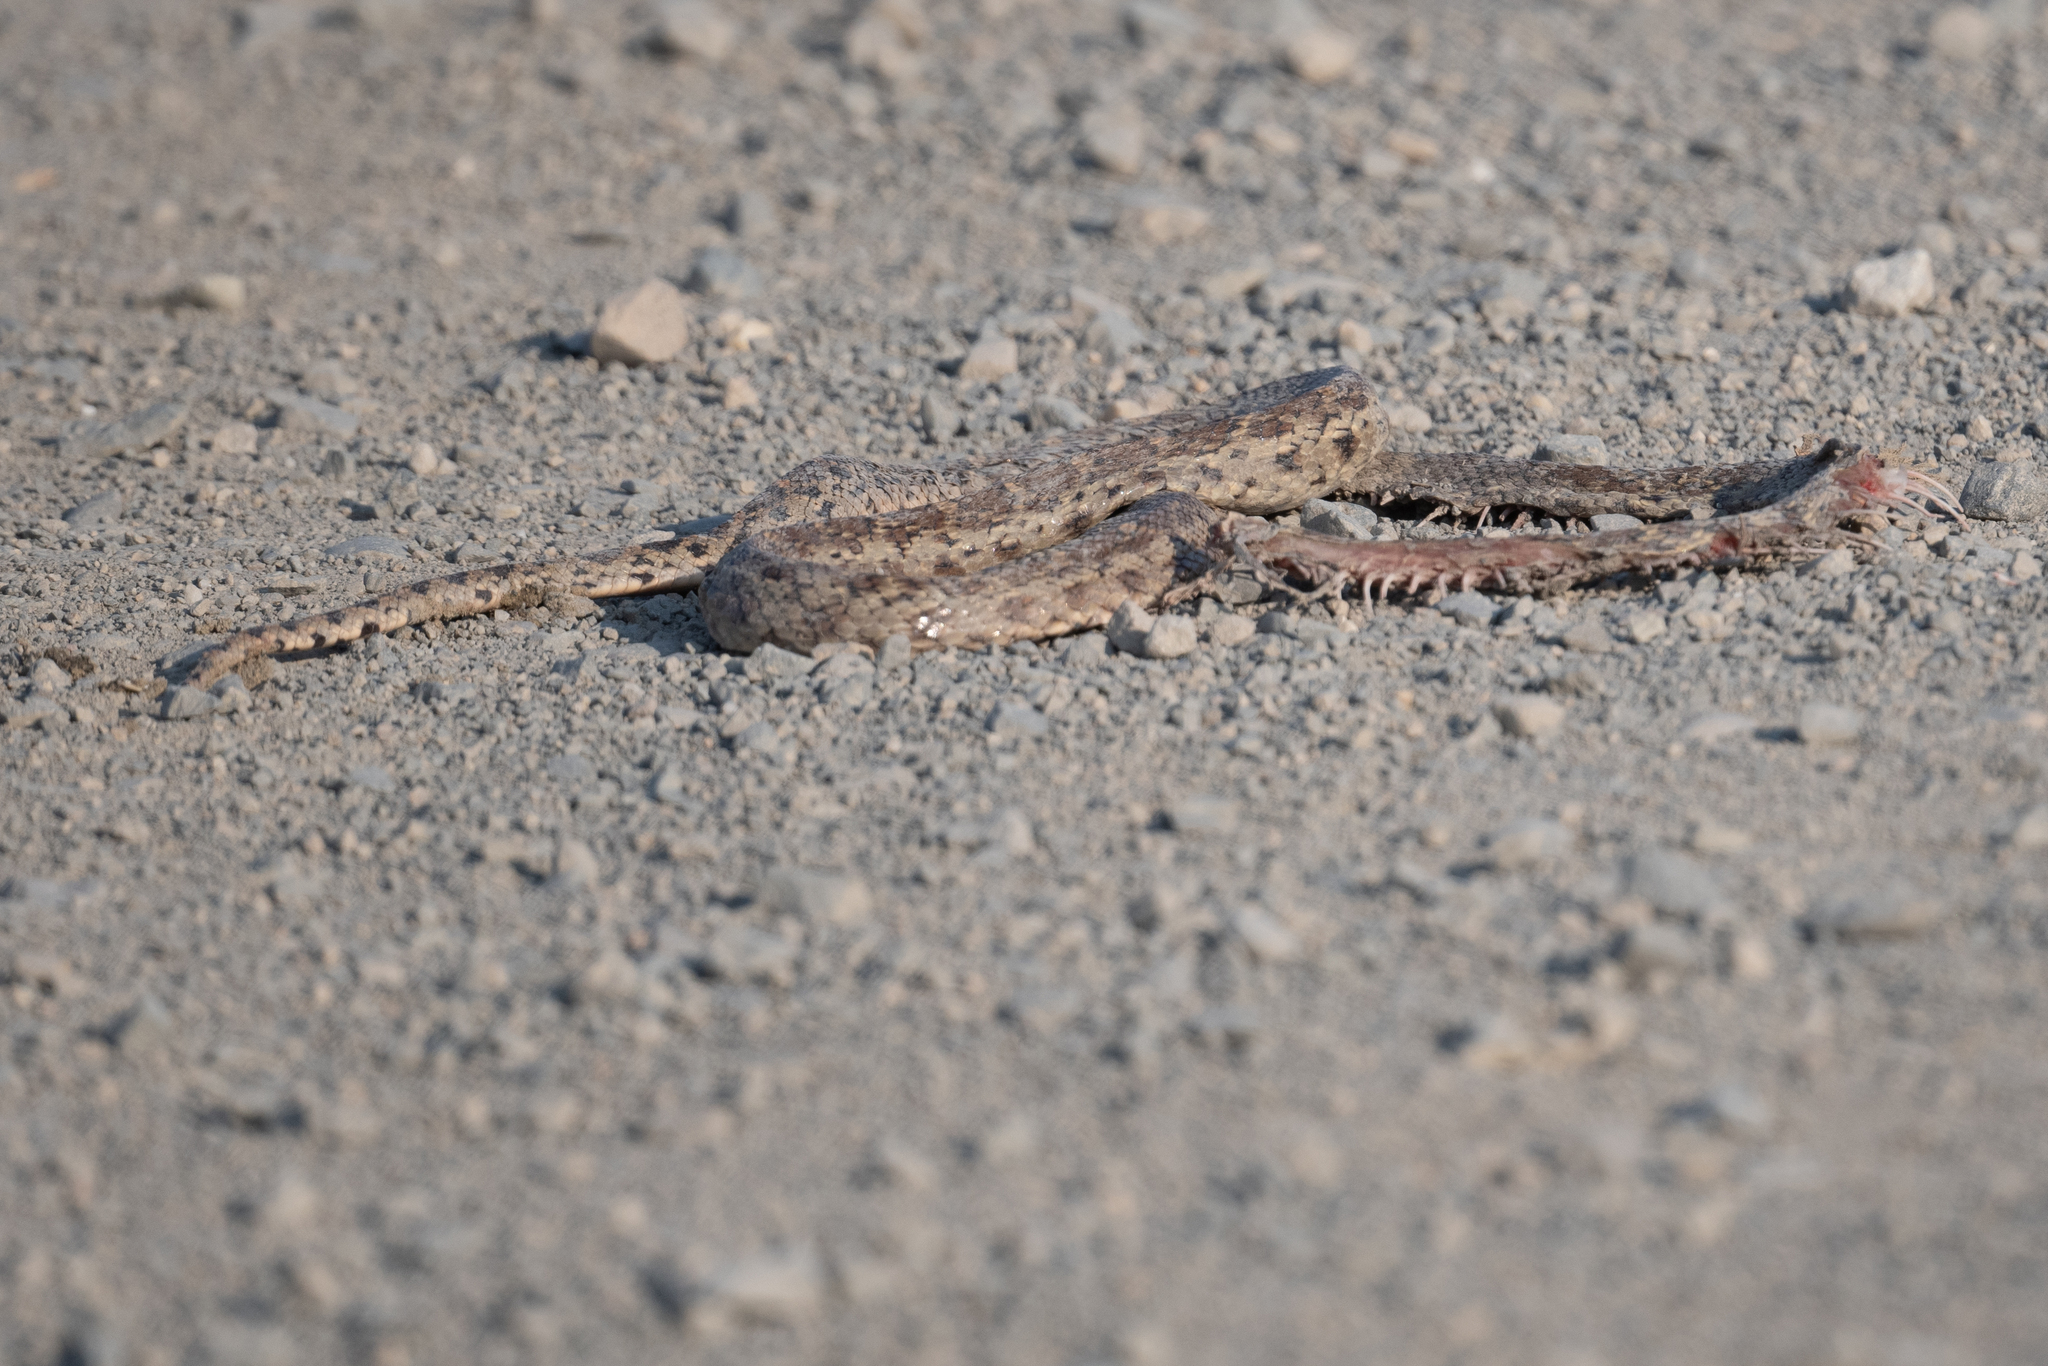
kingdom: Animalia
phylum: Chordata
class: Squamata
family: Colubridae
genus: Pituophis
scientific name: Pituophis catenifer
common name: Gopher snake
